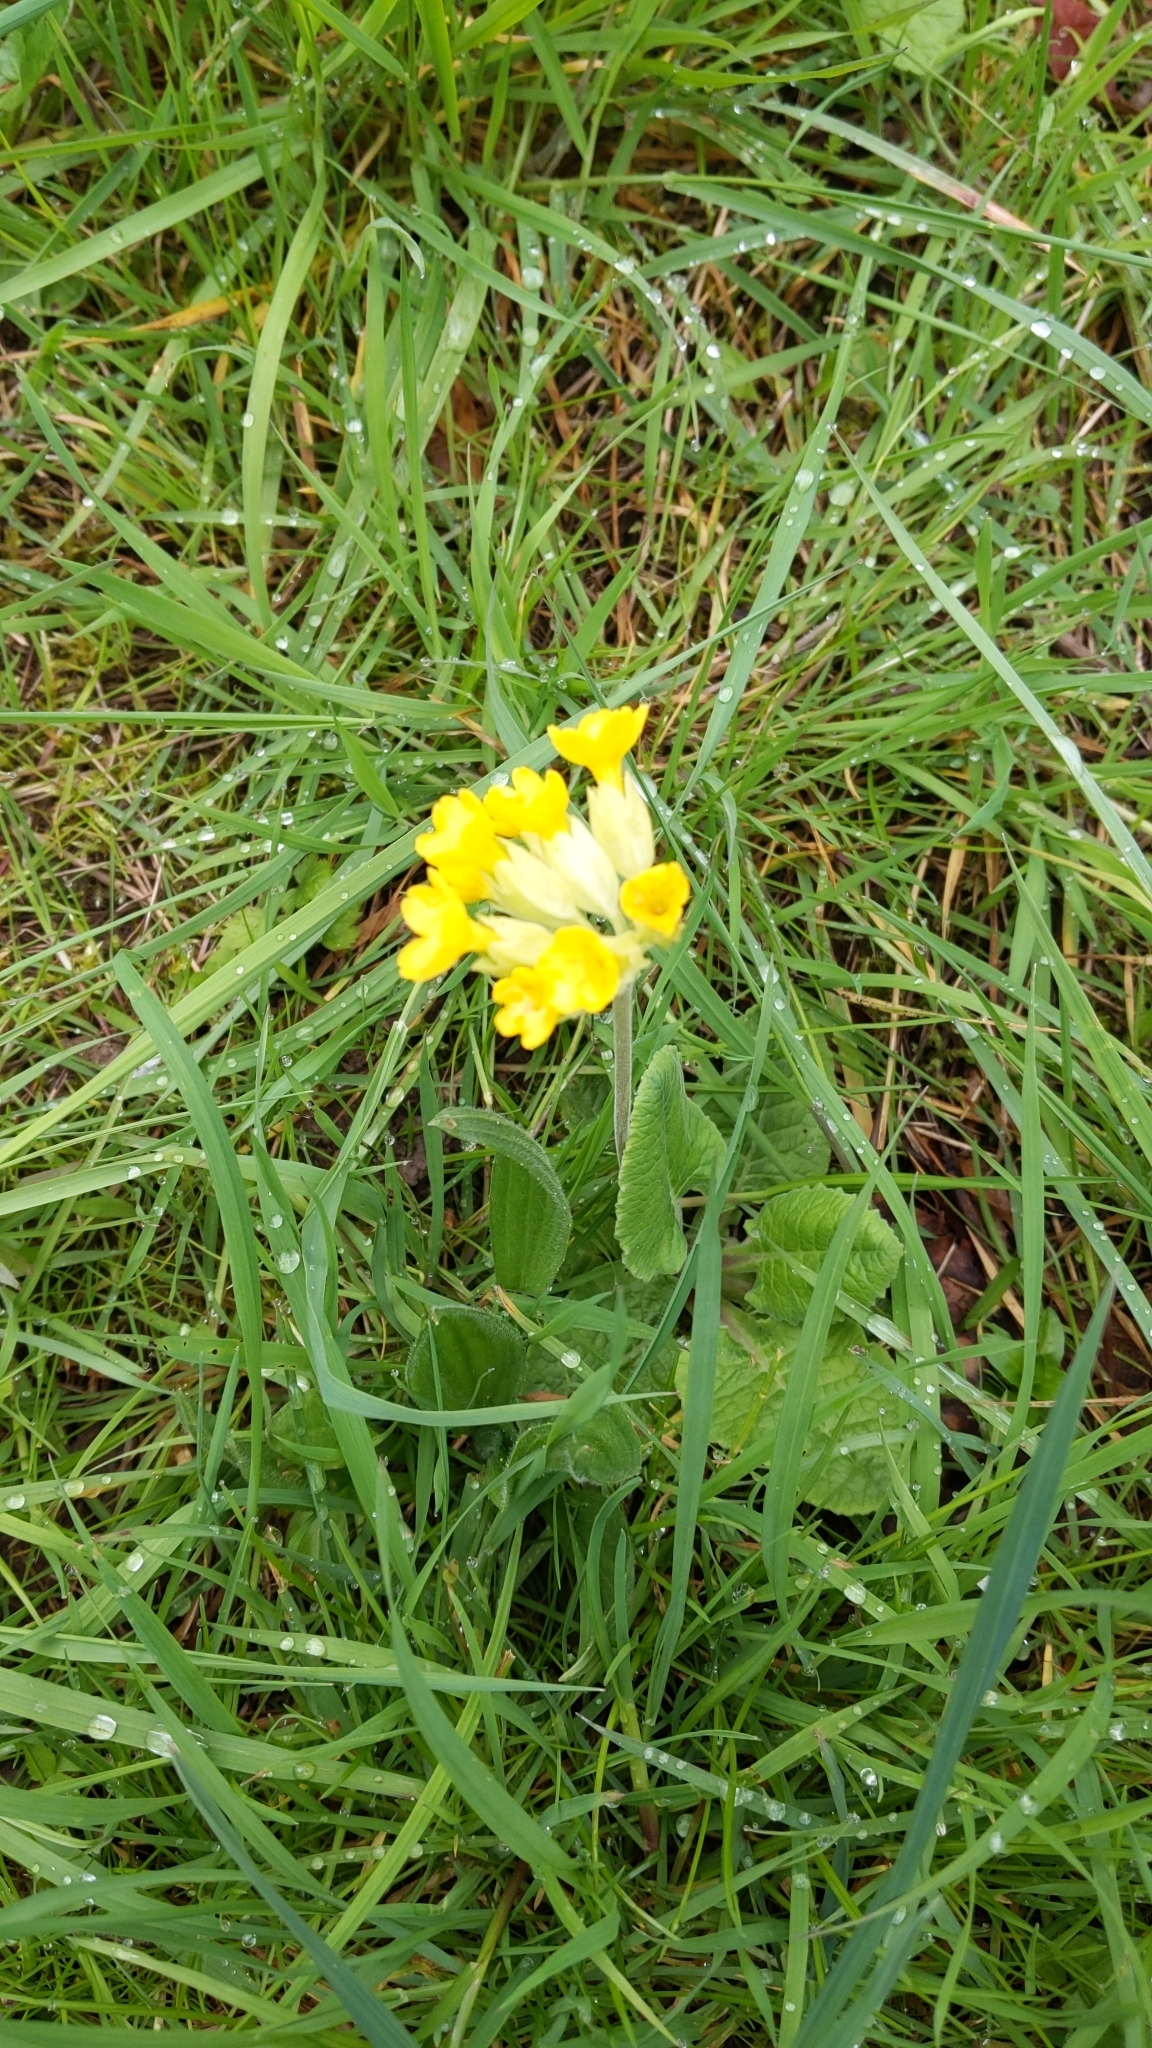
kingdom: Plantae
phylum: Tracheophyta
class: Magnoliopsida
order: Ericales
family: Primulaceae
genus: Primula
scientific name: Primula veris
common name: Cowslip
